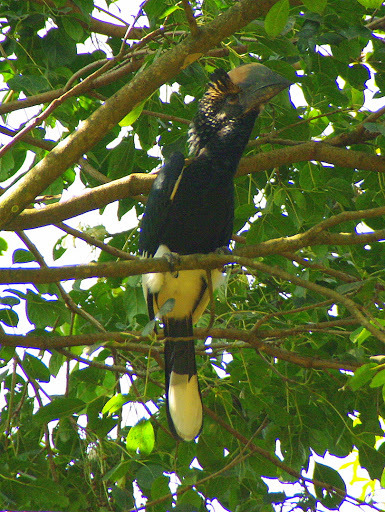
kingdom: Animalia
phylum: Chordata
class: Aves
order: Bucerotiformes
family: Bucerotidae
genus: Bycanistes
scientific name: Bycanistes subcylindricus
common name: Black-and-white-casqued hornbill
